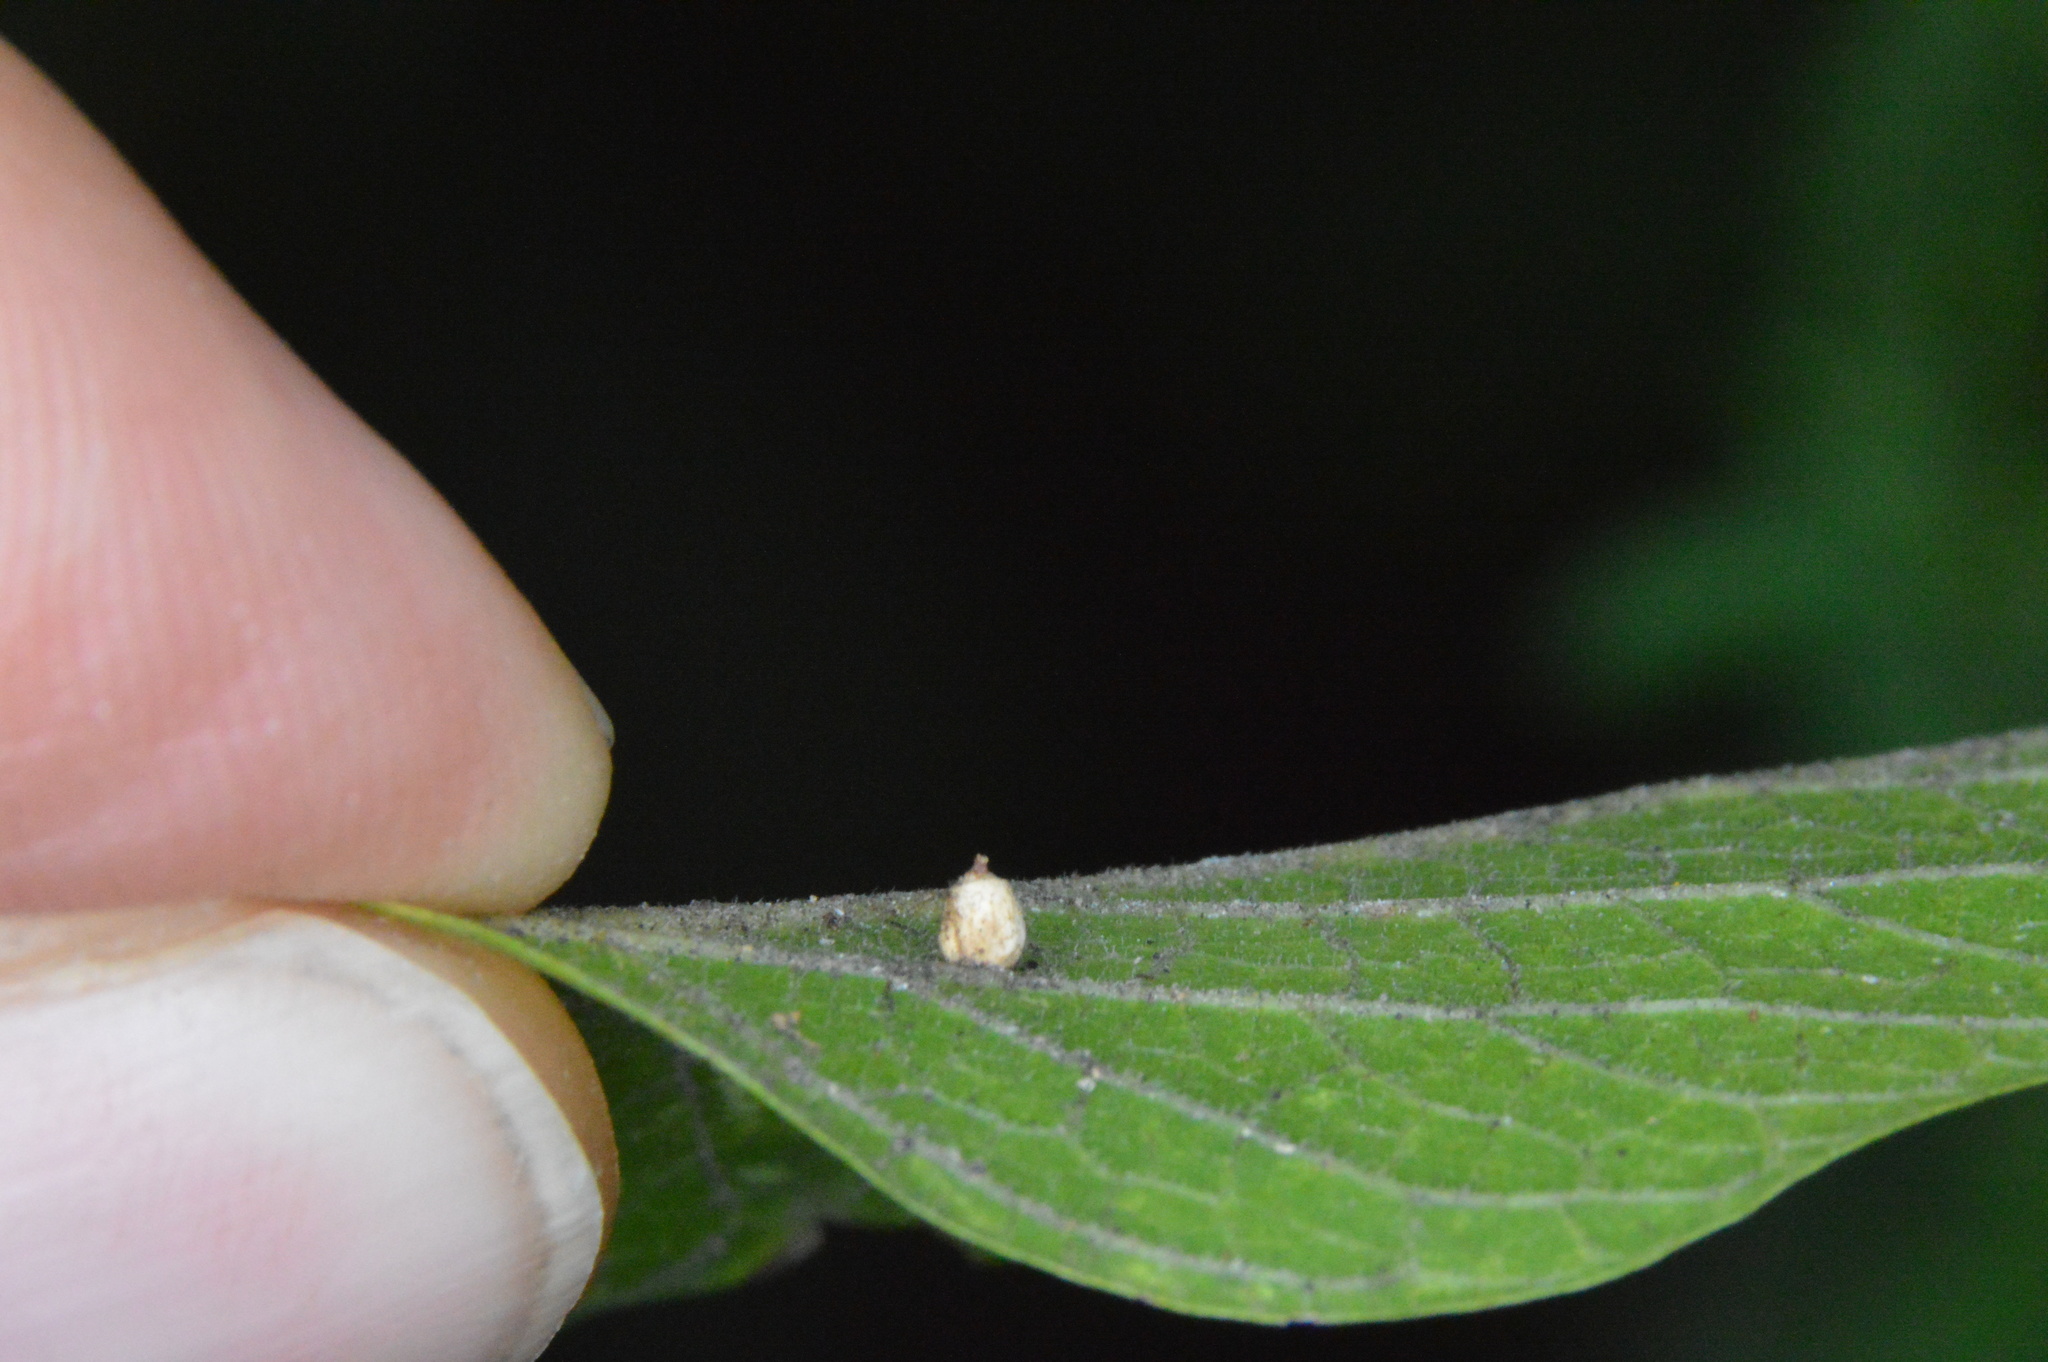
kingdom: Animalia
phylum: Arthropoda
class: Insecta
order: Diptera
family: Cecidomyiidae
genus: Celticecis
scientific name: Celticecis globosa
